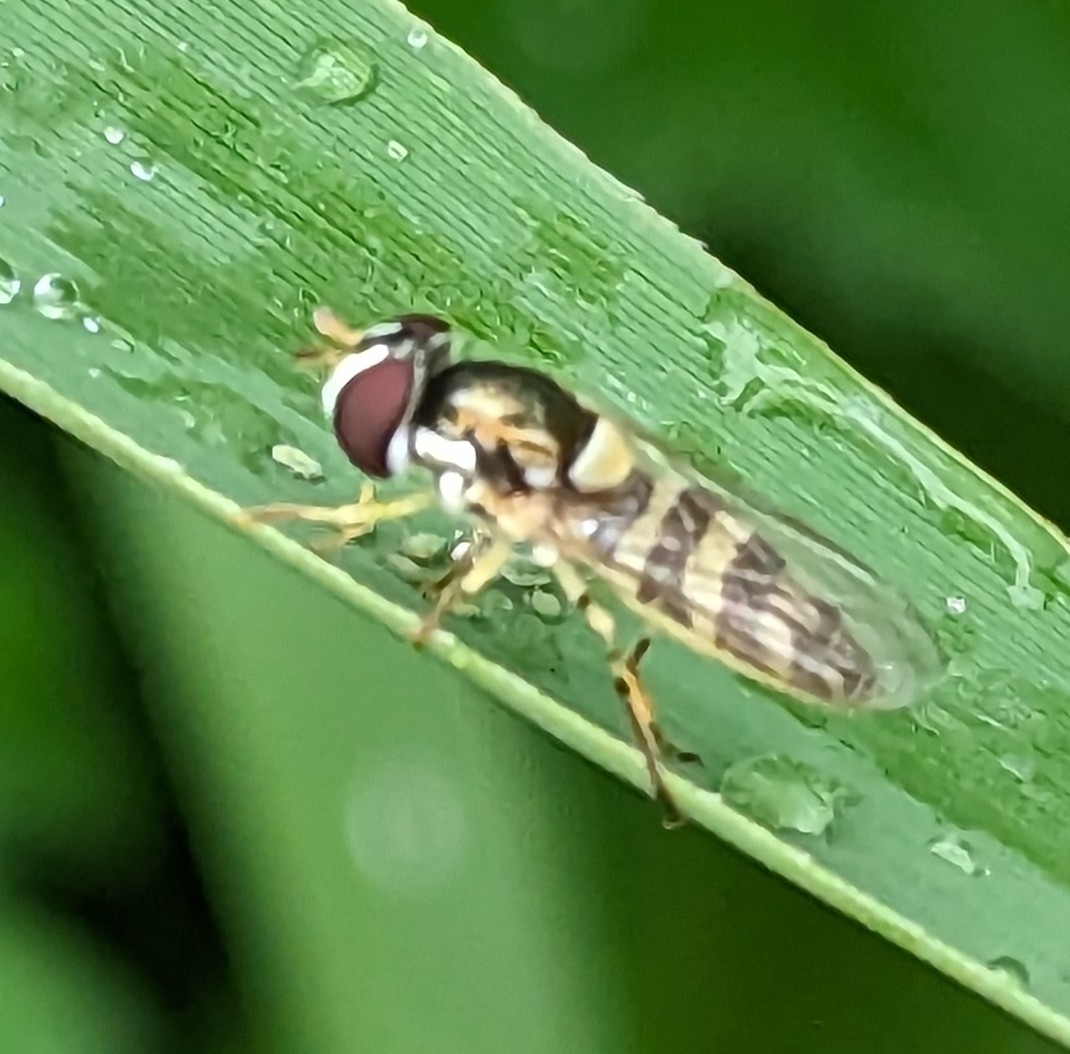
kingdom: Animalia
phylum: Arthropoda
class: Insecta
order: Diptera
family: Syrphidae
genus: Allograpta
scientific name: Allograpta exotica
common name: Syrphid fly
